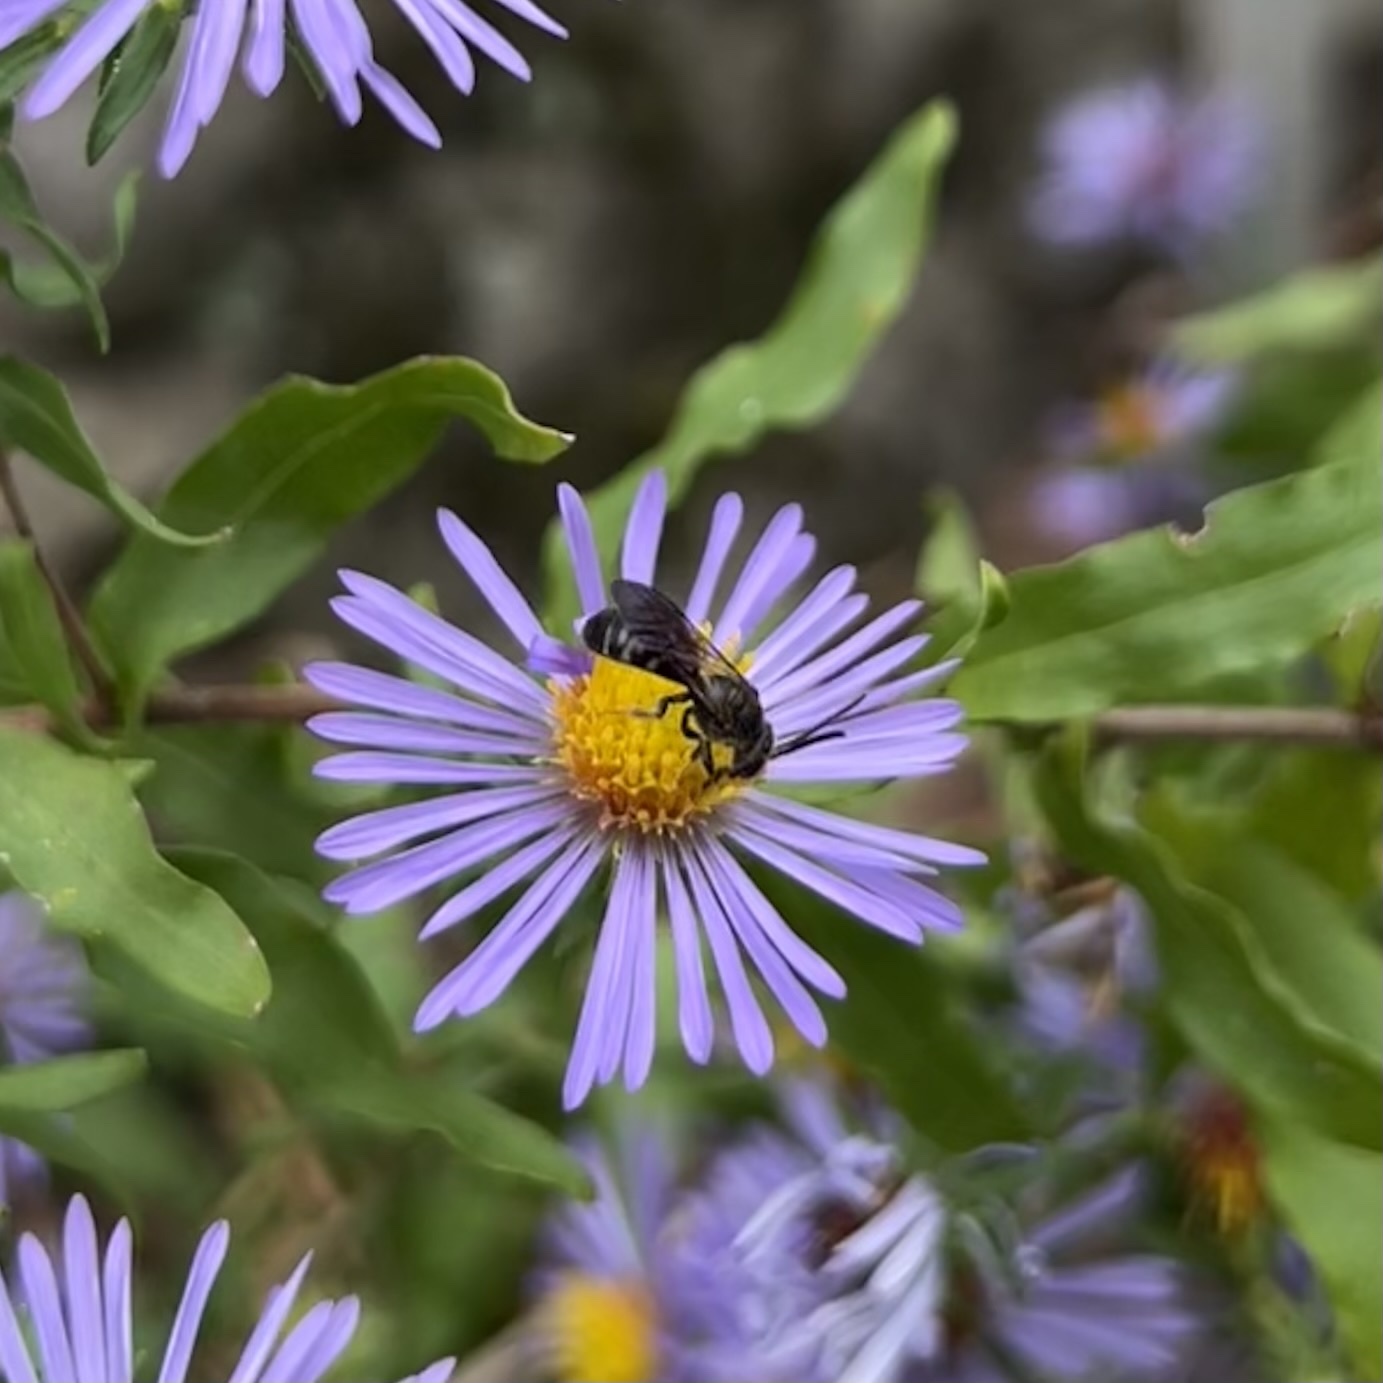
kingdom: Animalia
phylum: Arthropoda
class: Insecta
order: Hymenoptera
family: Halictidae
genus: Lasioglossum
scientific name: Lasioglossum fuscipenne
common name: Brown-winged sweat bee
